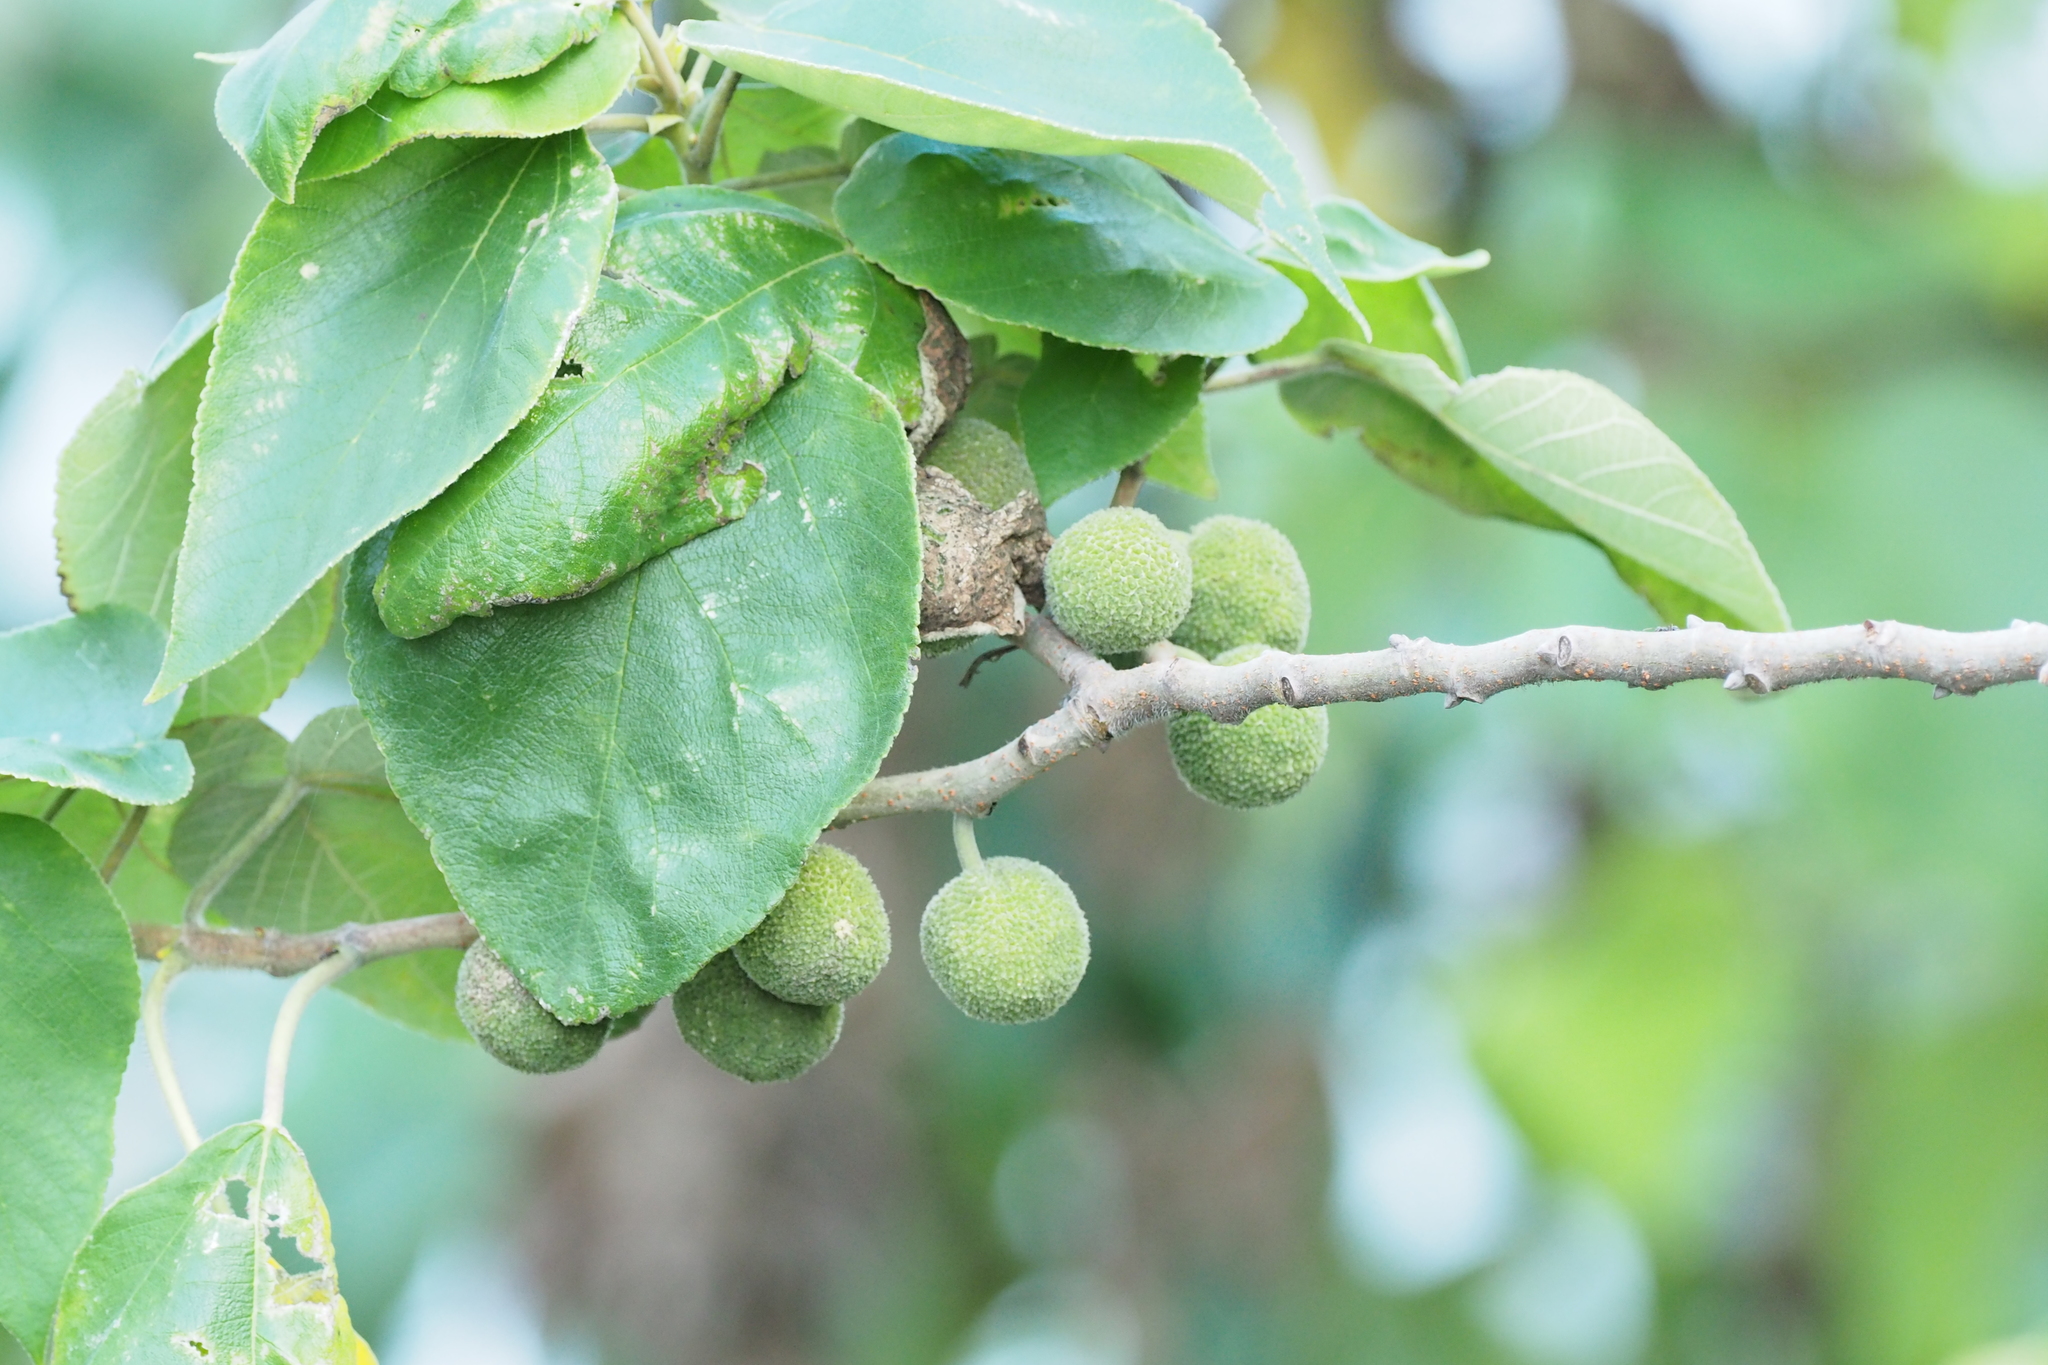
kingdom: Plantae
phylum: Tracheophyta
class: Magnoliopsida
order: Rosales
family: Moraceae
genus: Broussonetia
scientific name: Broussonetia papyrifera
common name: Paper mulberry
